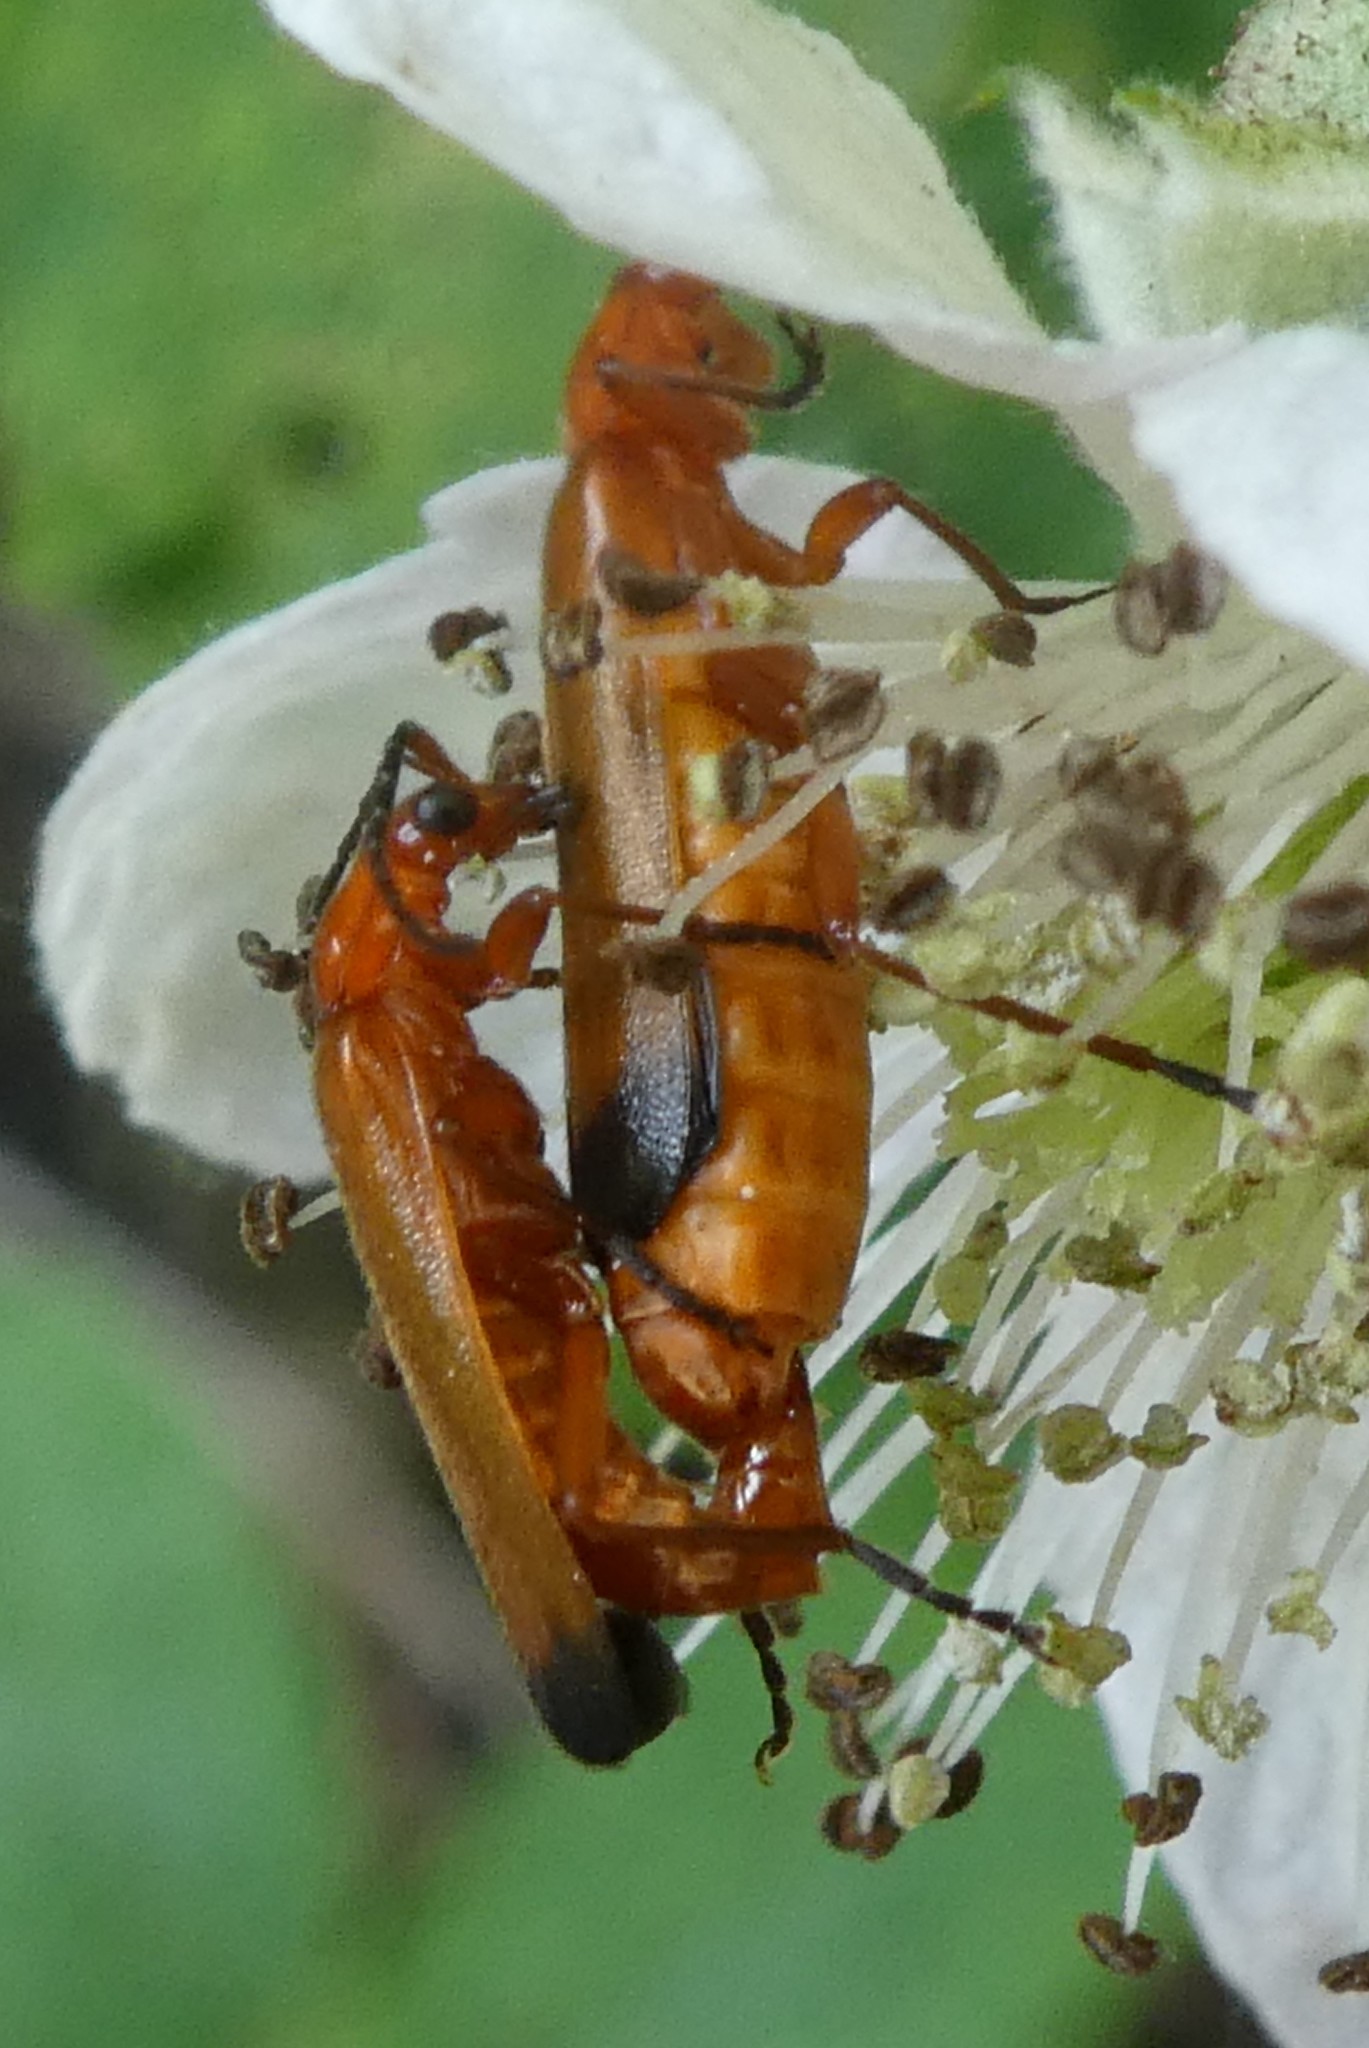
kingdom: Animalia
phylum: Arthropoda
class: Insecta
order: Coleoptera
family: Cantharidae
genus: Rhagonycha
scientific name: Rhagonycha fulva
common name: Common red soldier beetle
